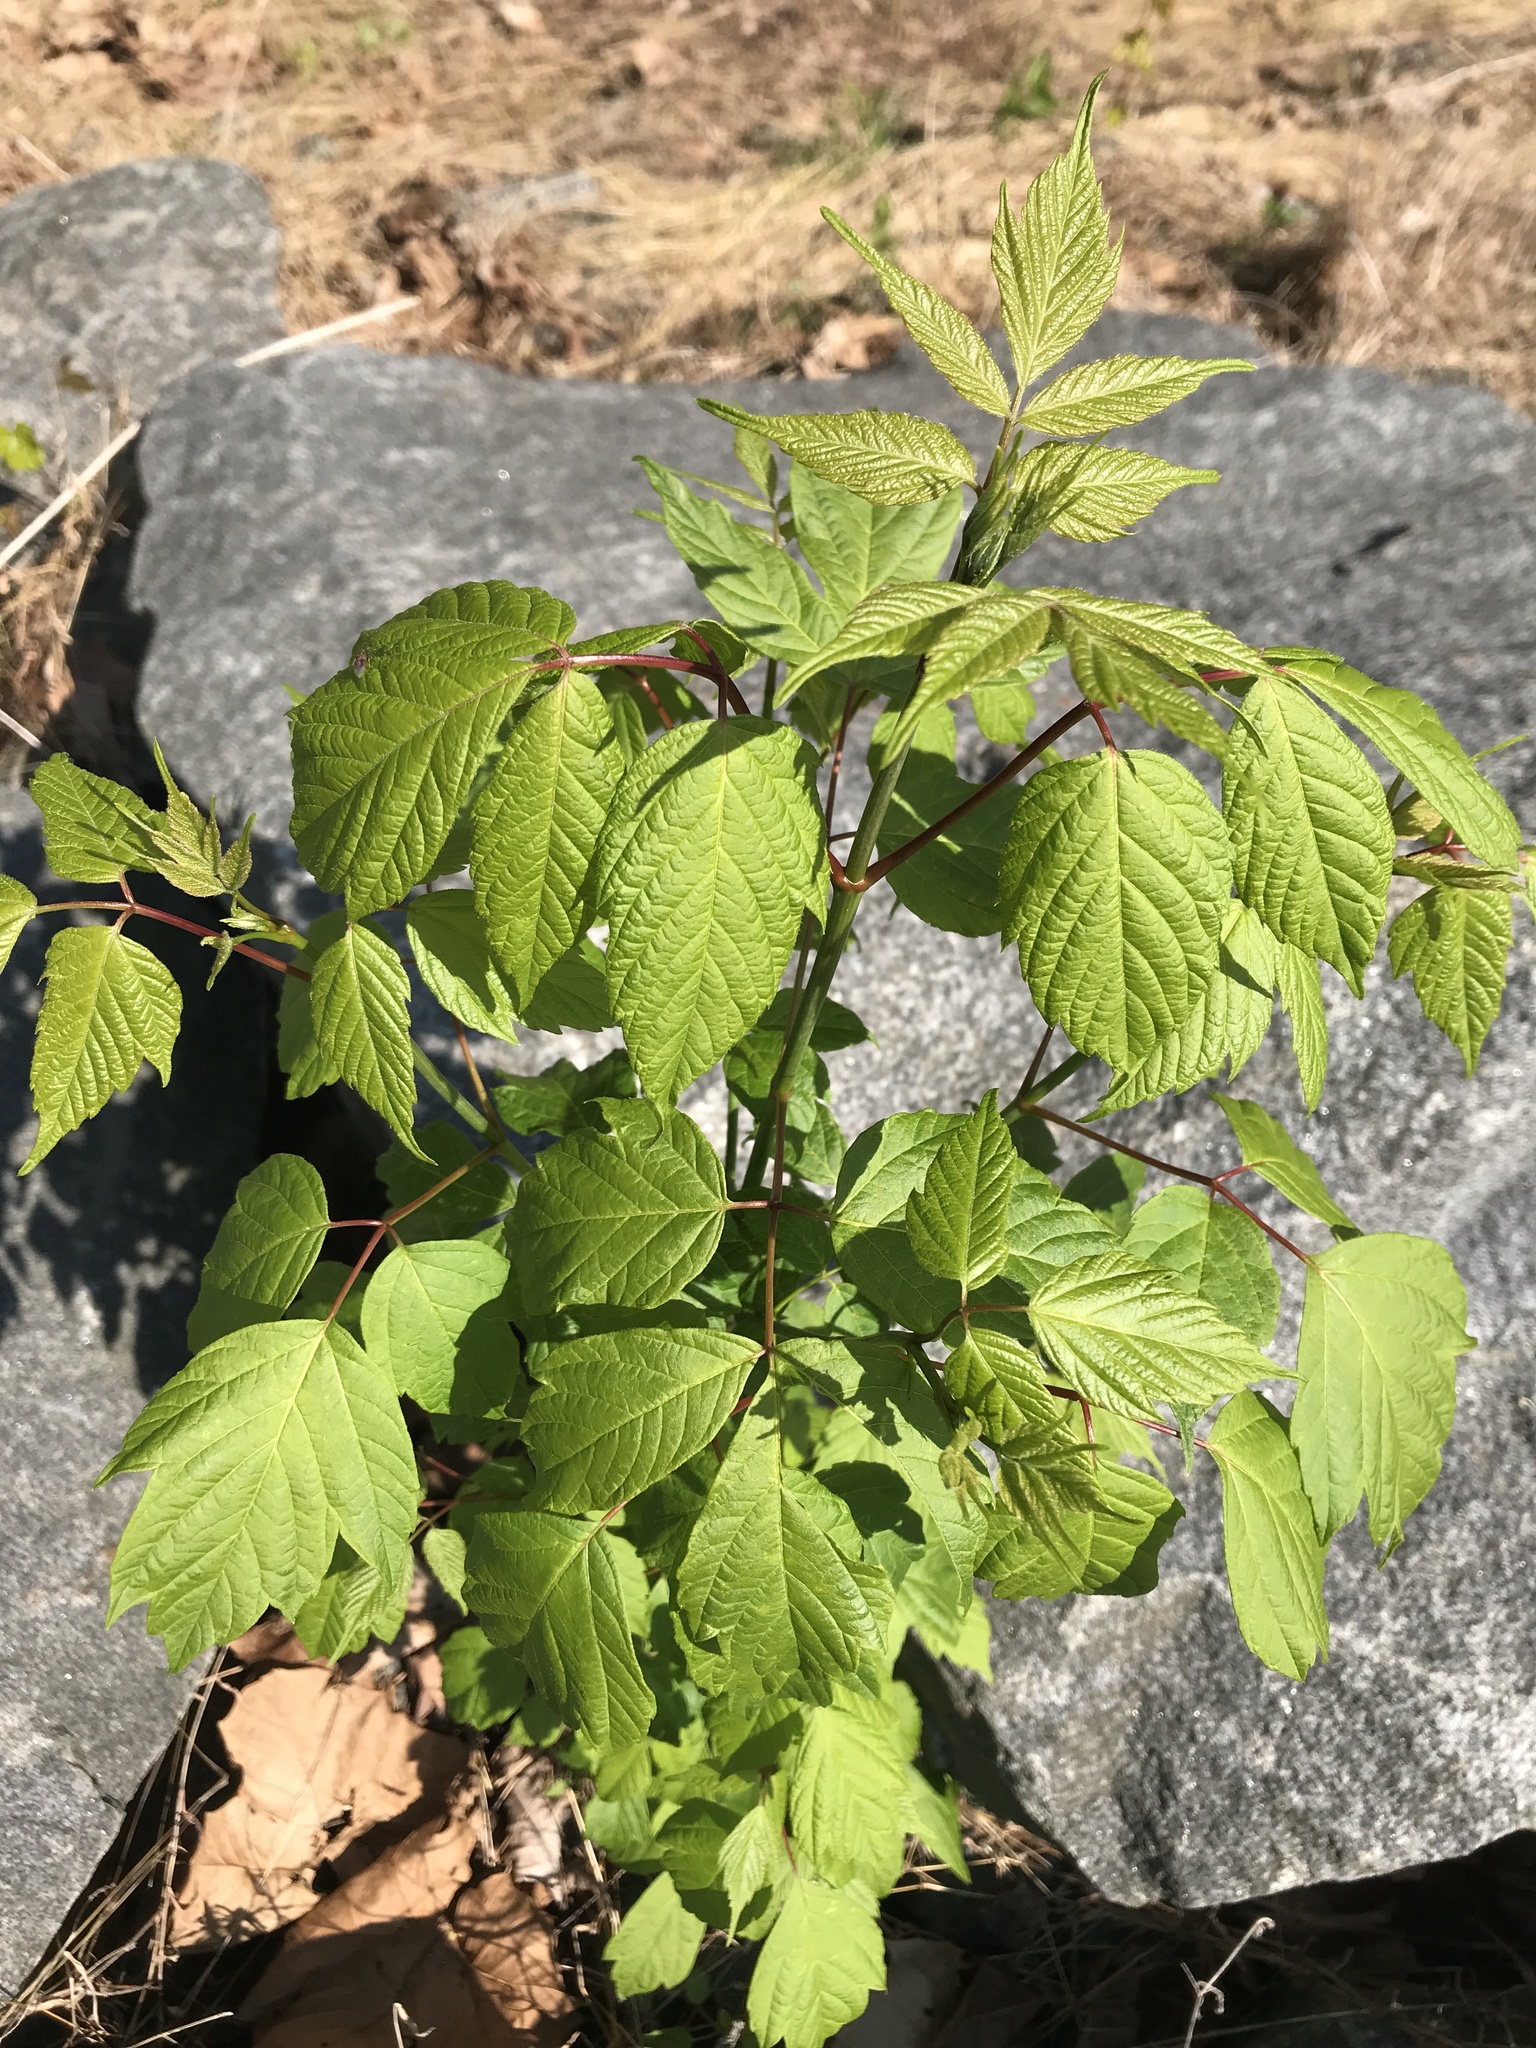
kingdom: Plantae
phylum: Tracheophyta
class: Magnoliopsida
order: Sapindales
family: Sapindaceae
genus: Acer
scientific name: Acer negundo
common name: Ashleaf maple
